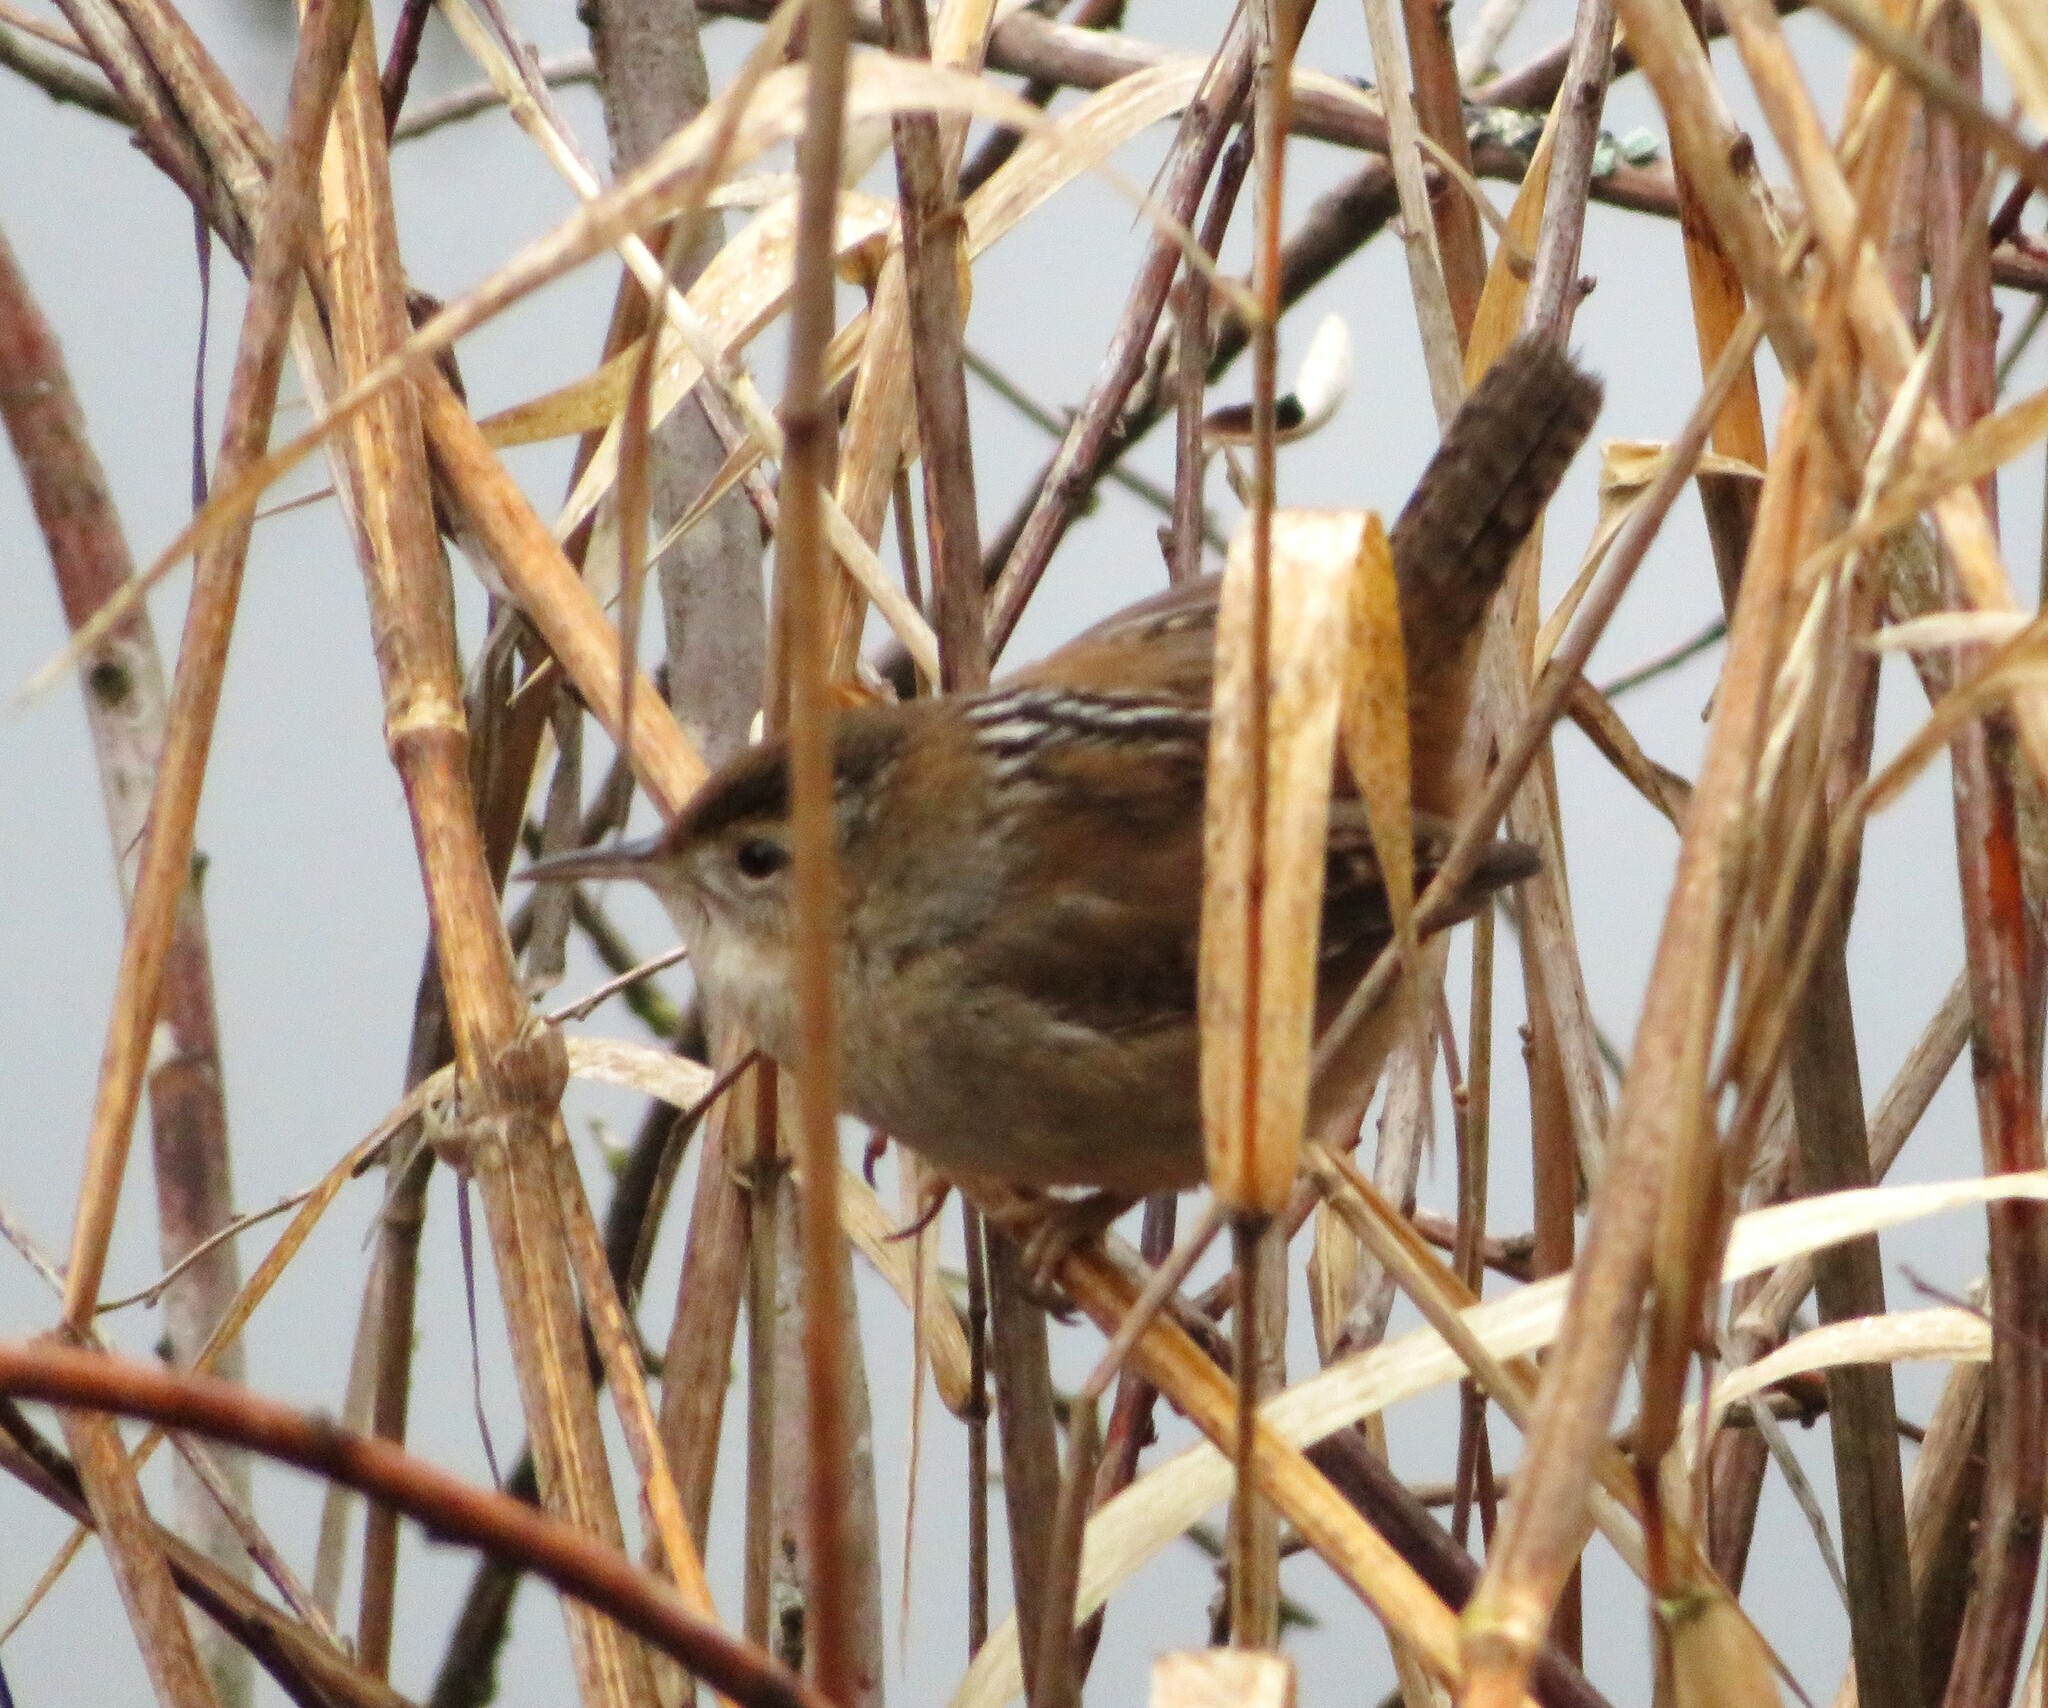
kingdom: Animalia
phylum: Chordata
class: Aves
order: Passeriformes
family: Troglodytidae
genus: Cistothorus
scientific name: Cistothorus palustris
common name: Marsh wren
